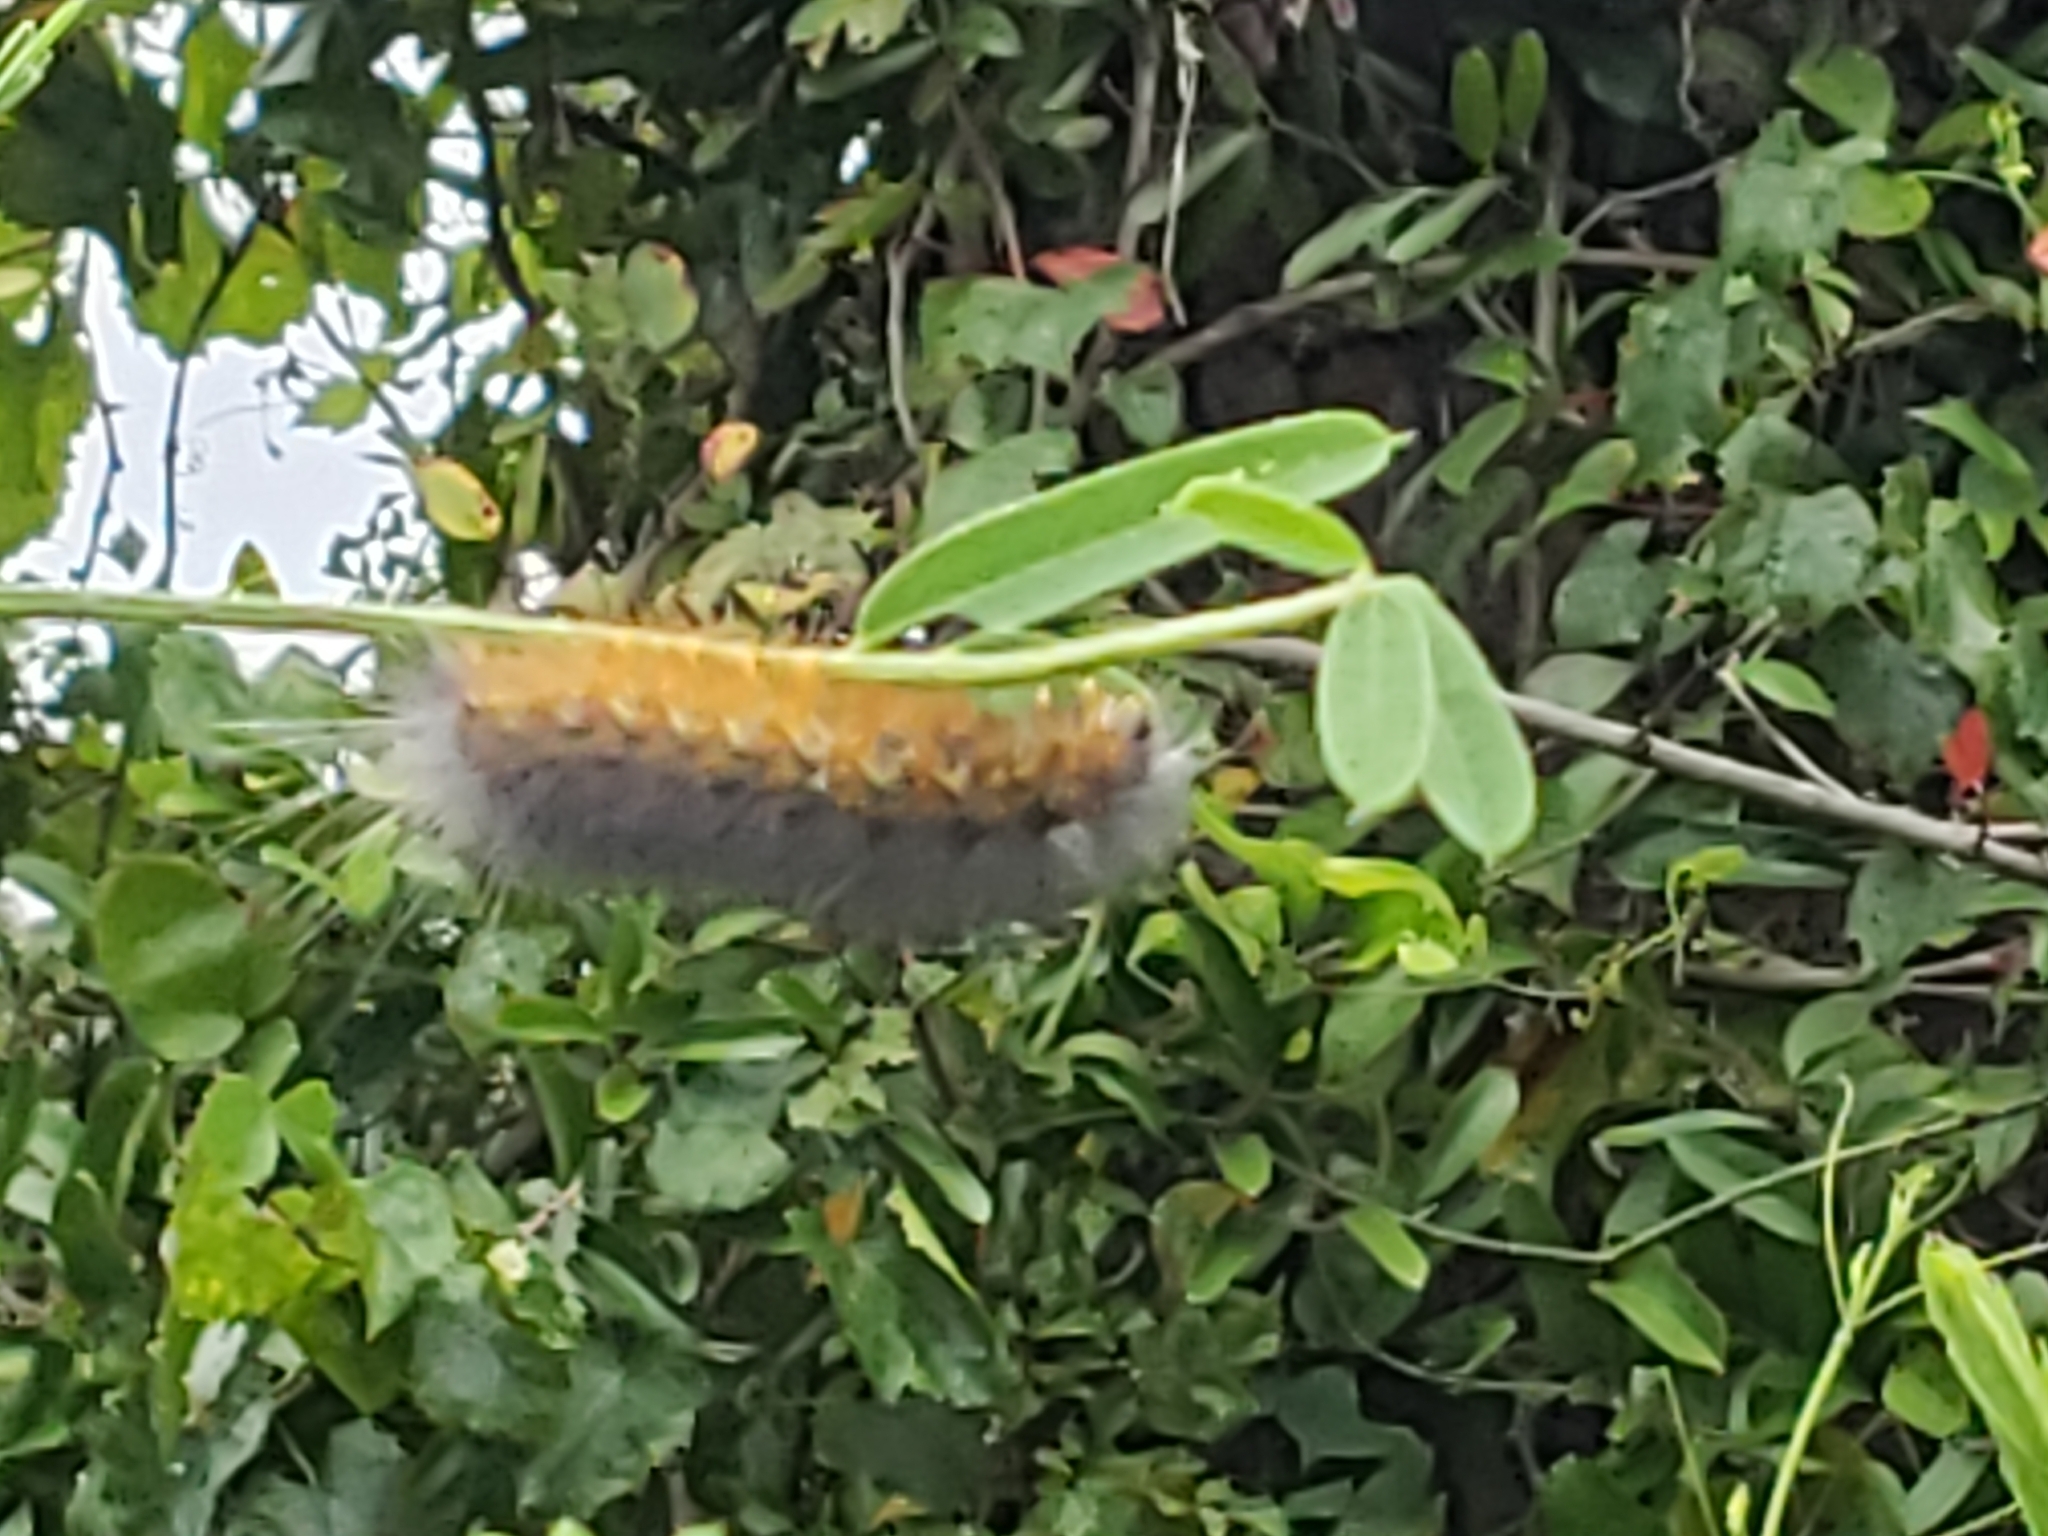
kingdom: Animalia
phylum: Arthropoda
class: Insecta
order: Lepidoptera
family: Erebidae
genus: Estigmene
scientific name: Estigmene acrea
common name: Salt marsh moth
